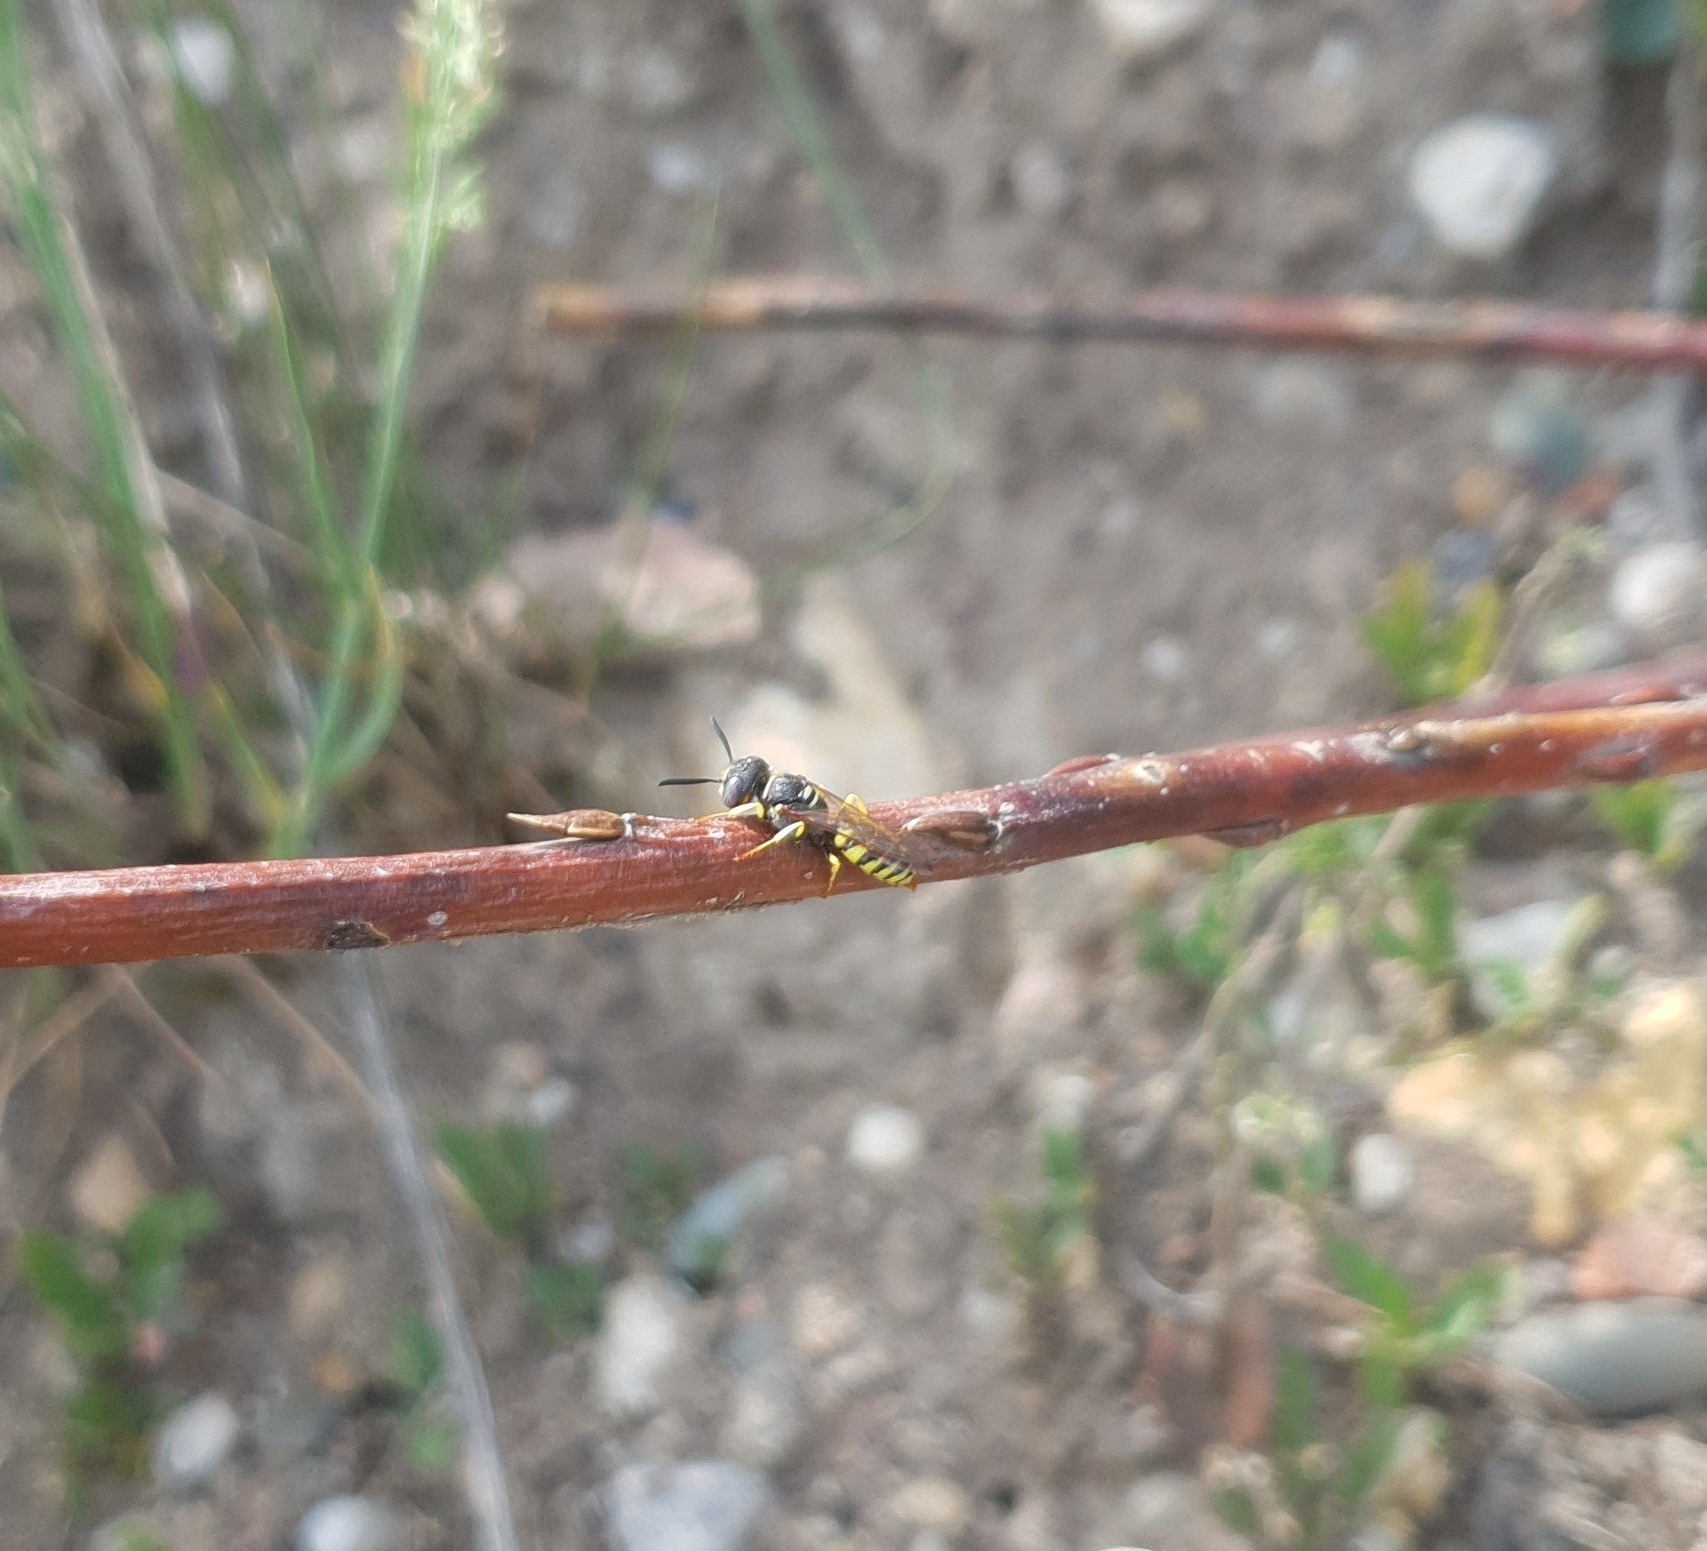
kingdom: Animalia
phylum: Arthropoda
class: Insecta
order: Hymenoptera
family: Crabronidae
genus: Philanthus
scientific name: Philanthus triangulum
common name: Bee wolf
